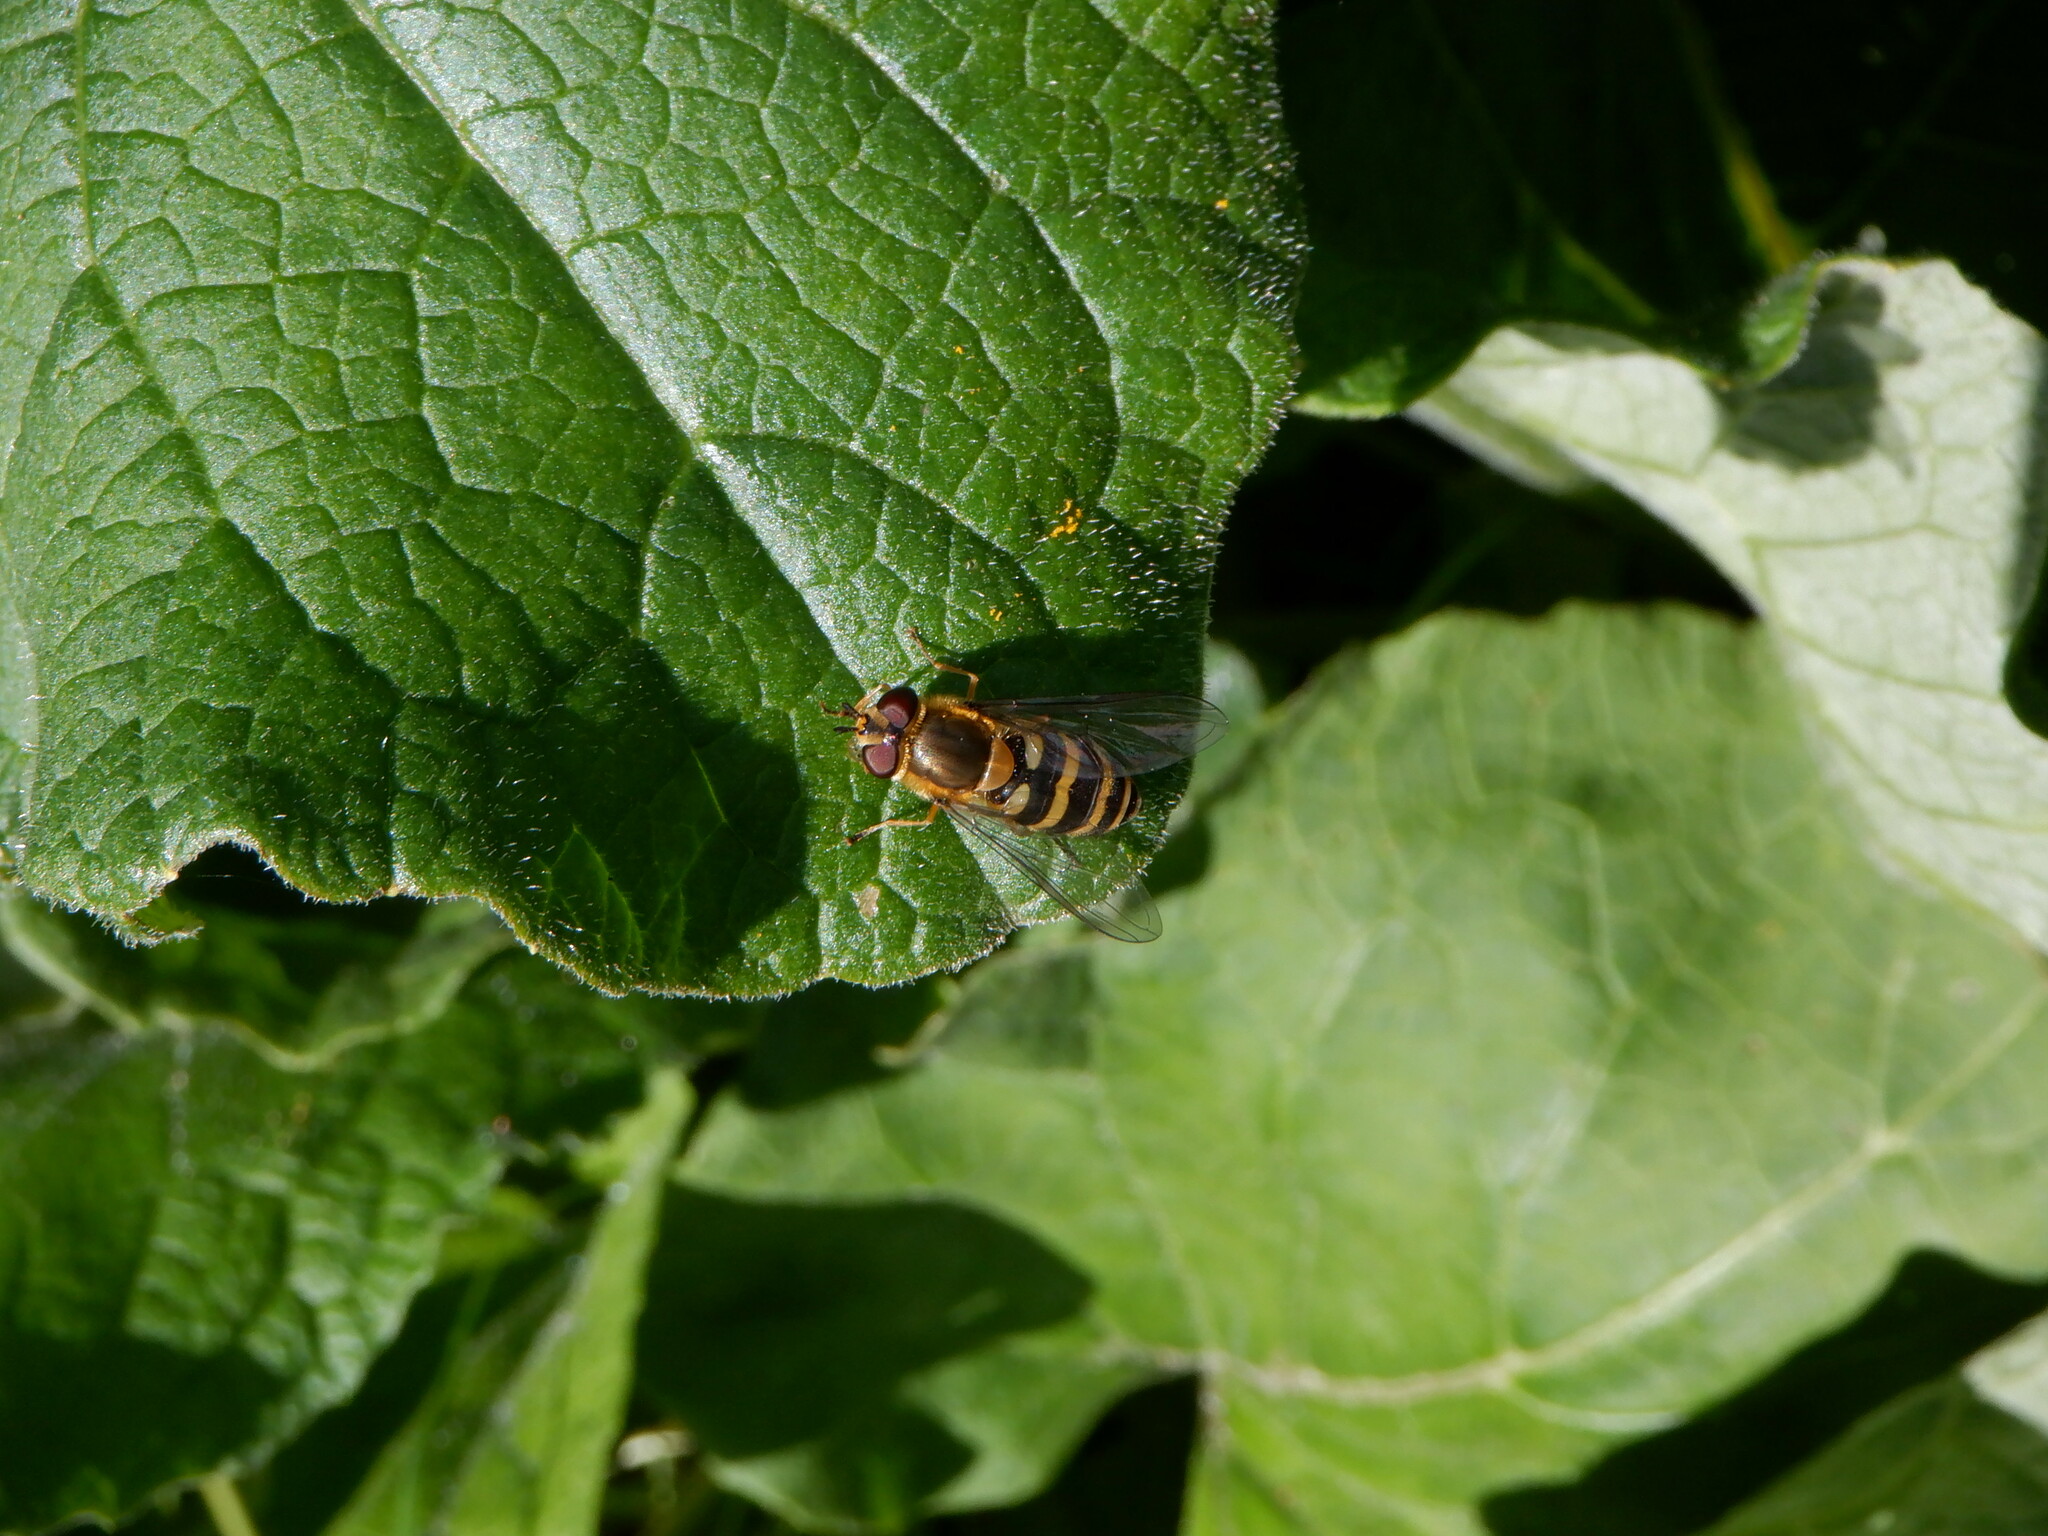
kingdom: Animalia
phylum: Arthropoda
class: Insecta
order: Diptera
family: Syrphidae
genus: Syrphus
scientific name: Syrphus
